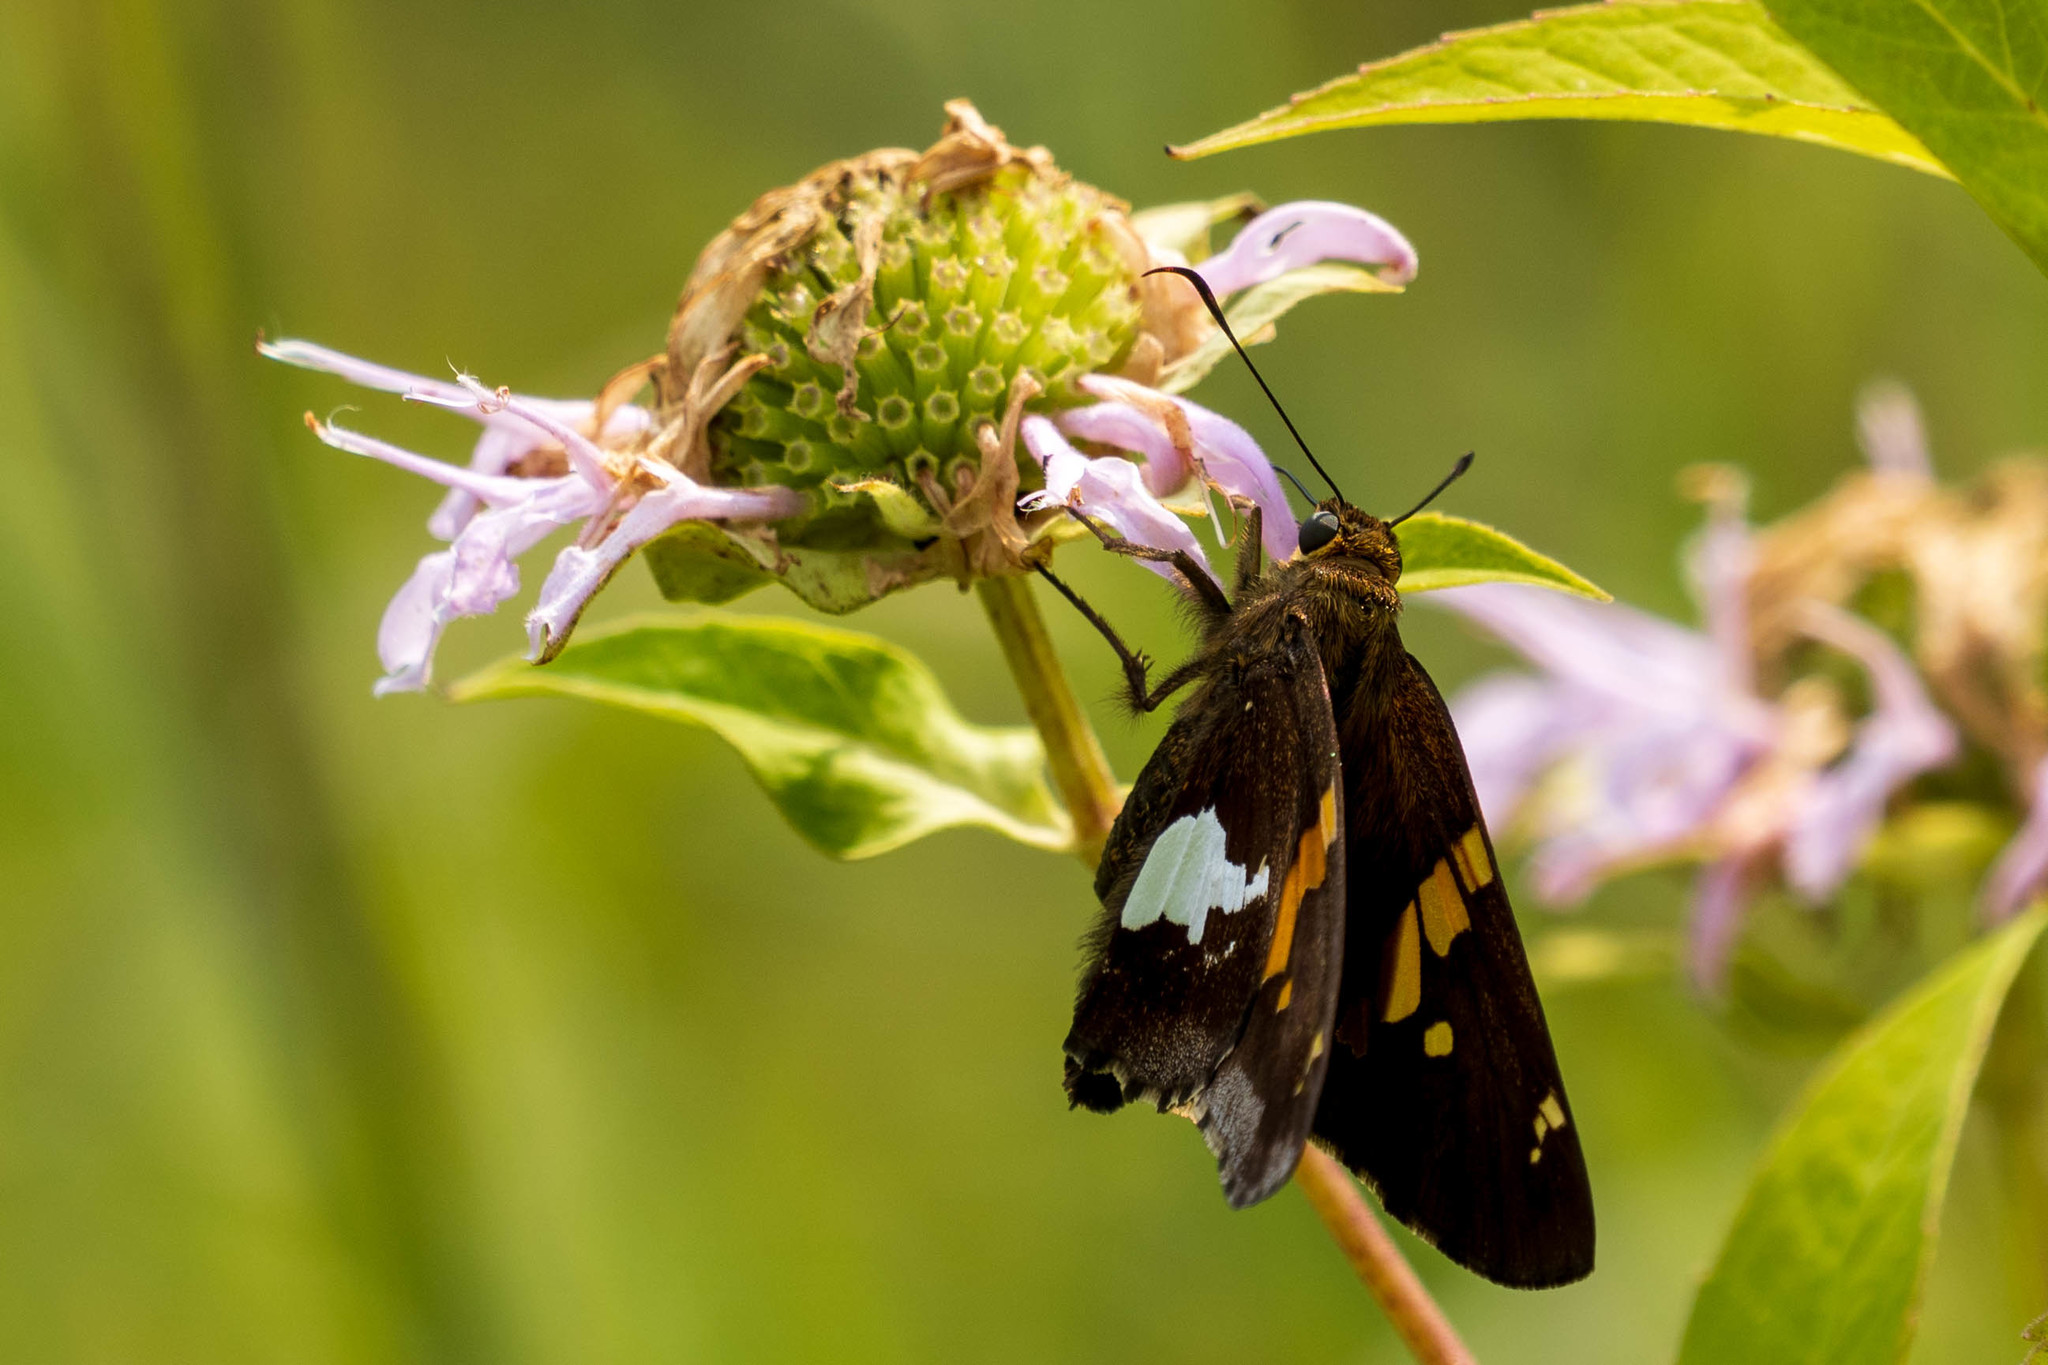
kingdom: Animalia
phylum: Arthropoda
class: Insecta
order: Lepidoptera
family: Hesperiidae
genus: Epargyreus
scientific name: Epargyreus clarus
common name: Silver-spotted skipper
